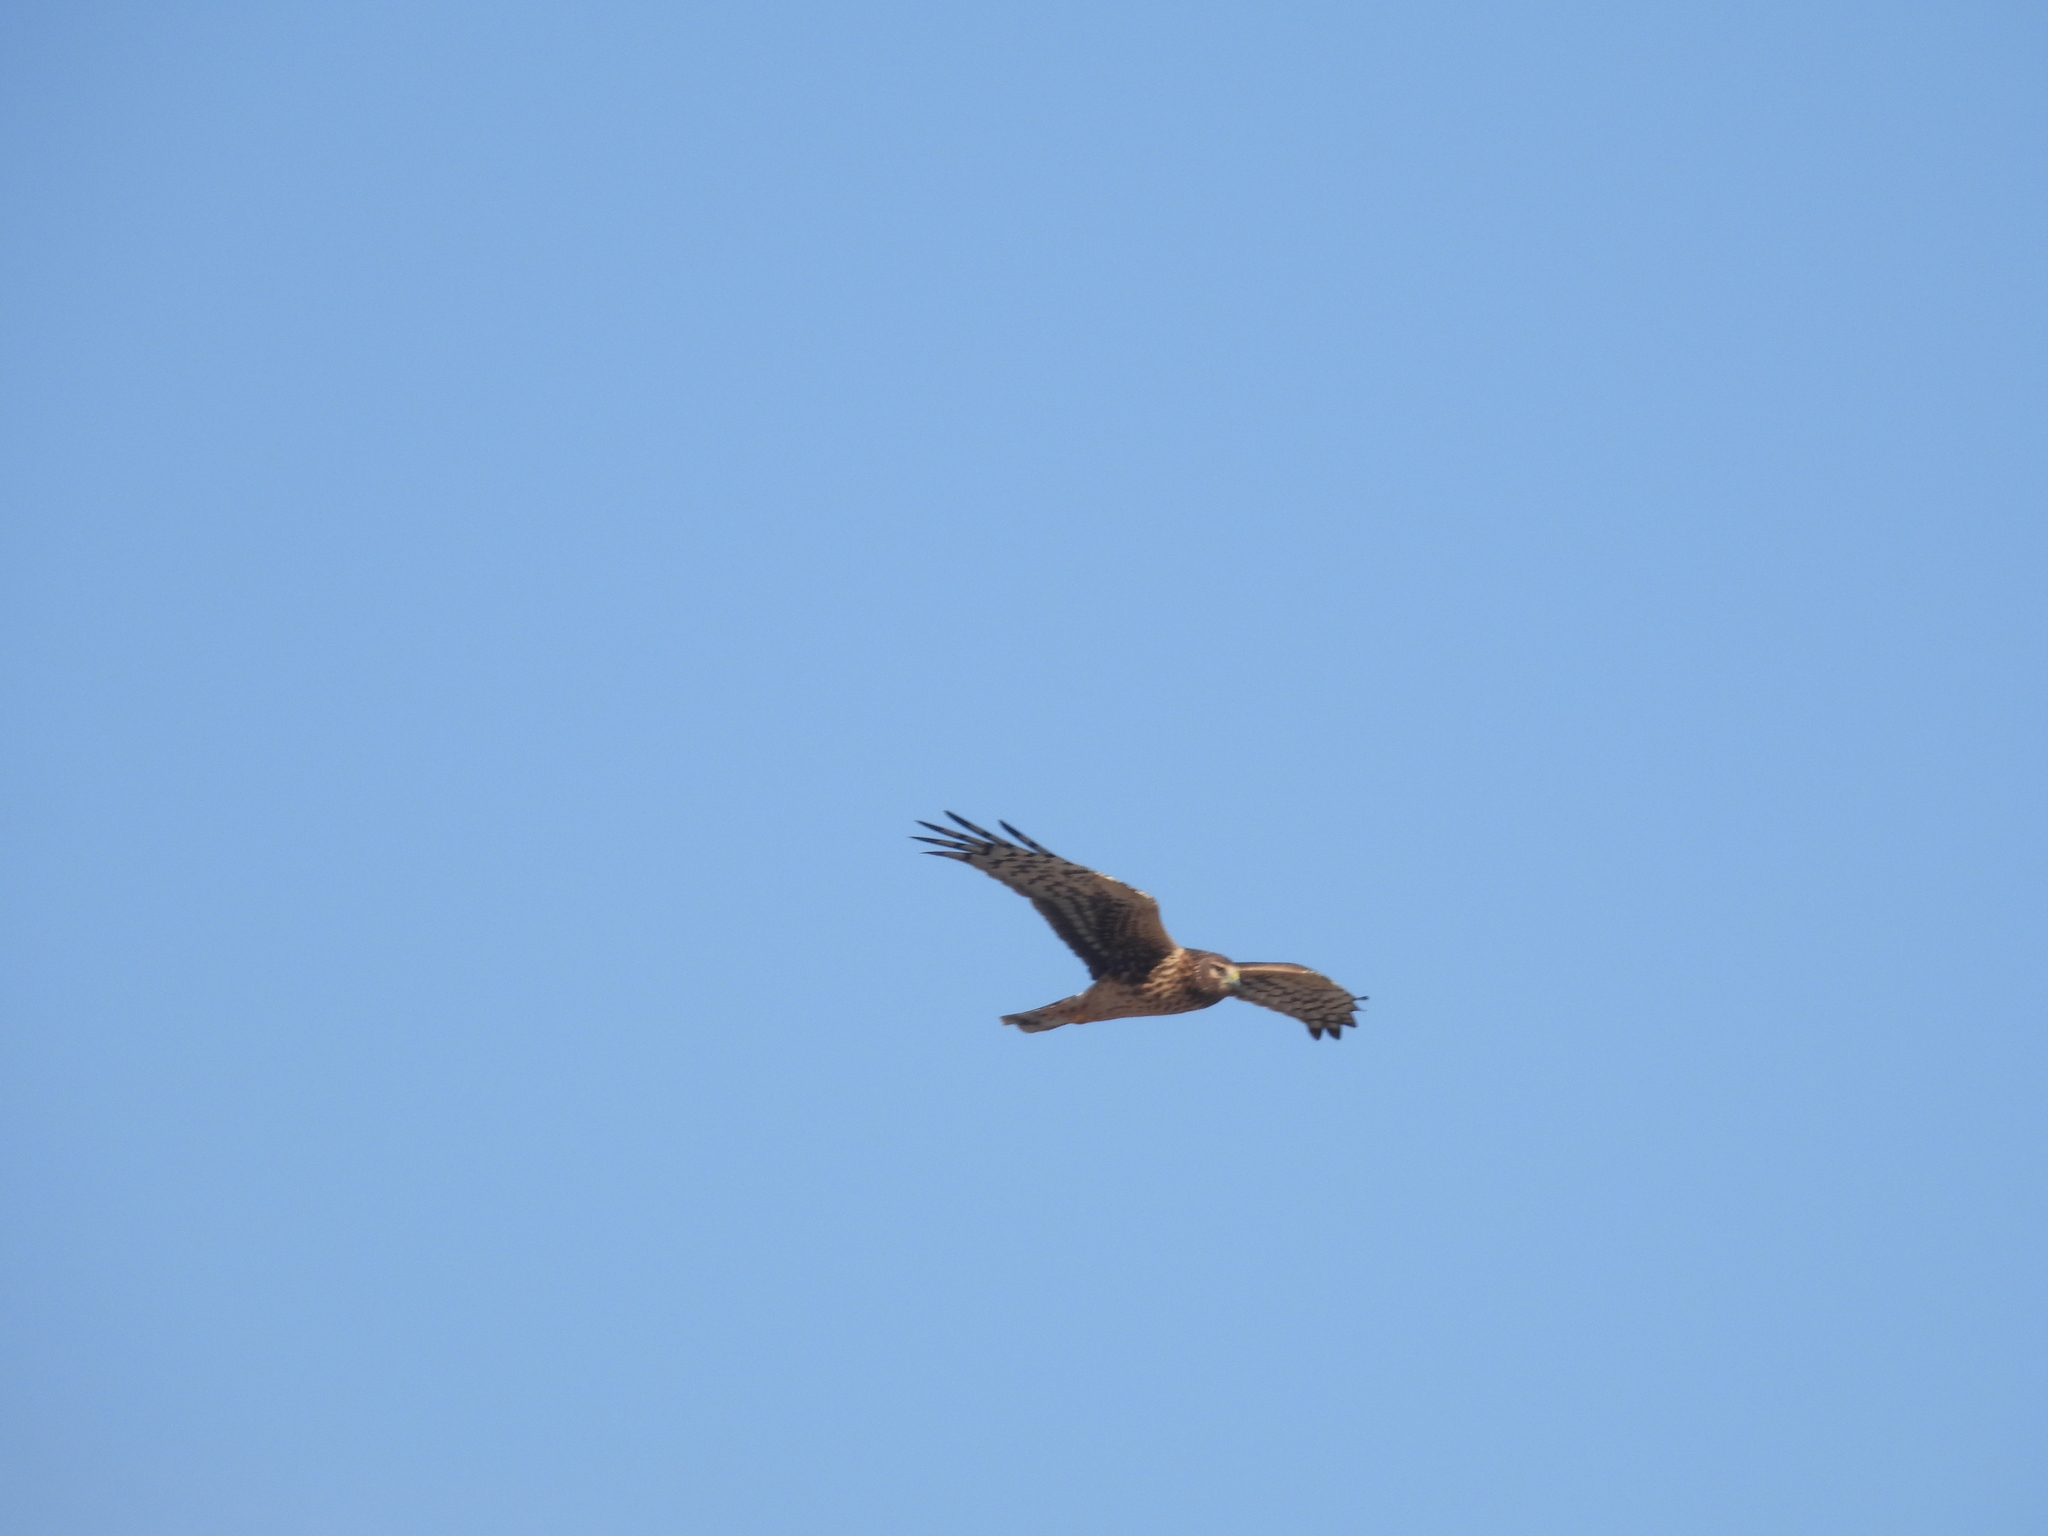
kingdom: Animalia
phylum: Chordata
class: Aves
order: Accipitriformes
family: Accipitridae
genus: Circus
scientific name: Circus cyaneus
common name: Hen harrier
